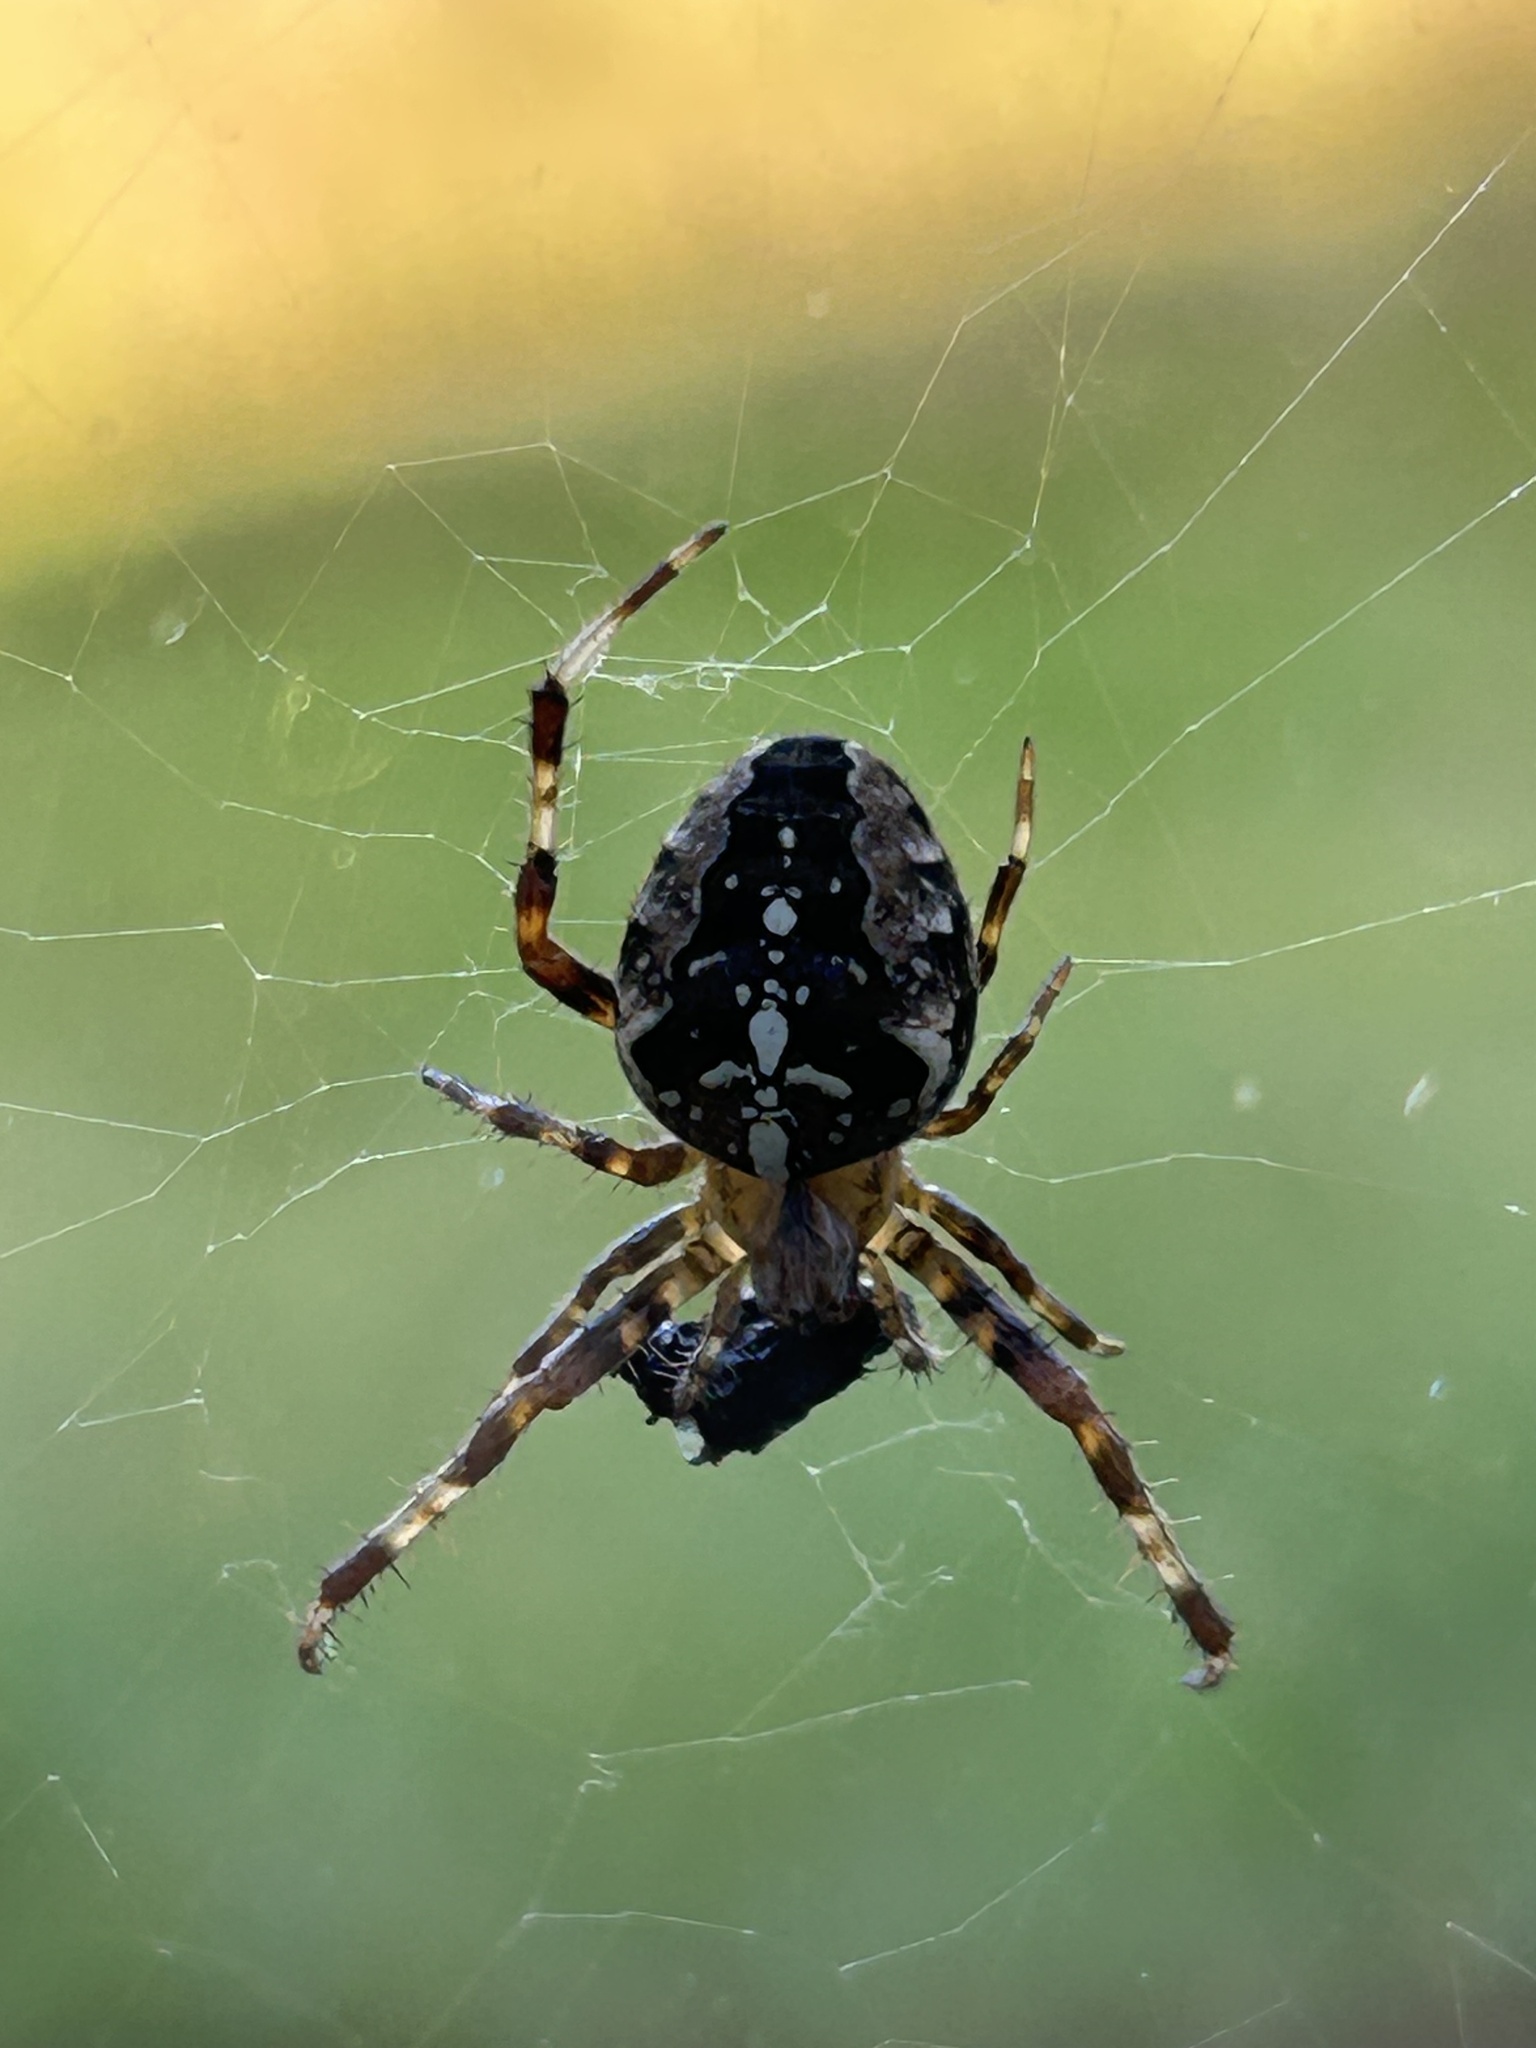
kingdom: Animalia
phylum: Arthropoda
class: Arachnida
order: Araneae
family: Araneidae
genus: Araneus
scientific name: Araneus diadematus
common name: Cross orbweaver
